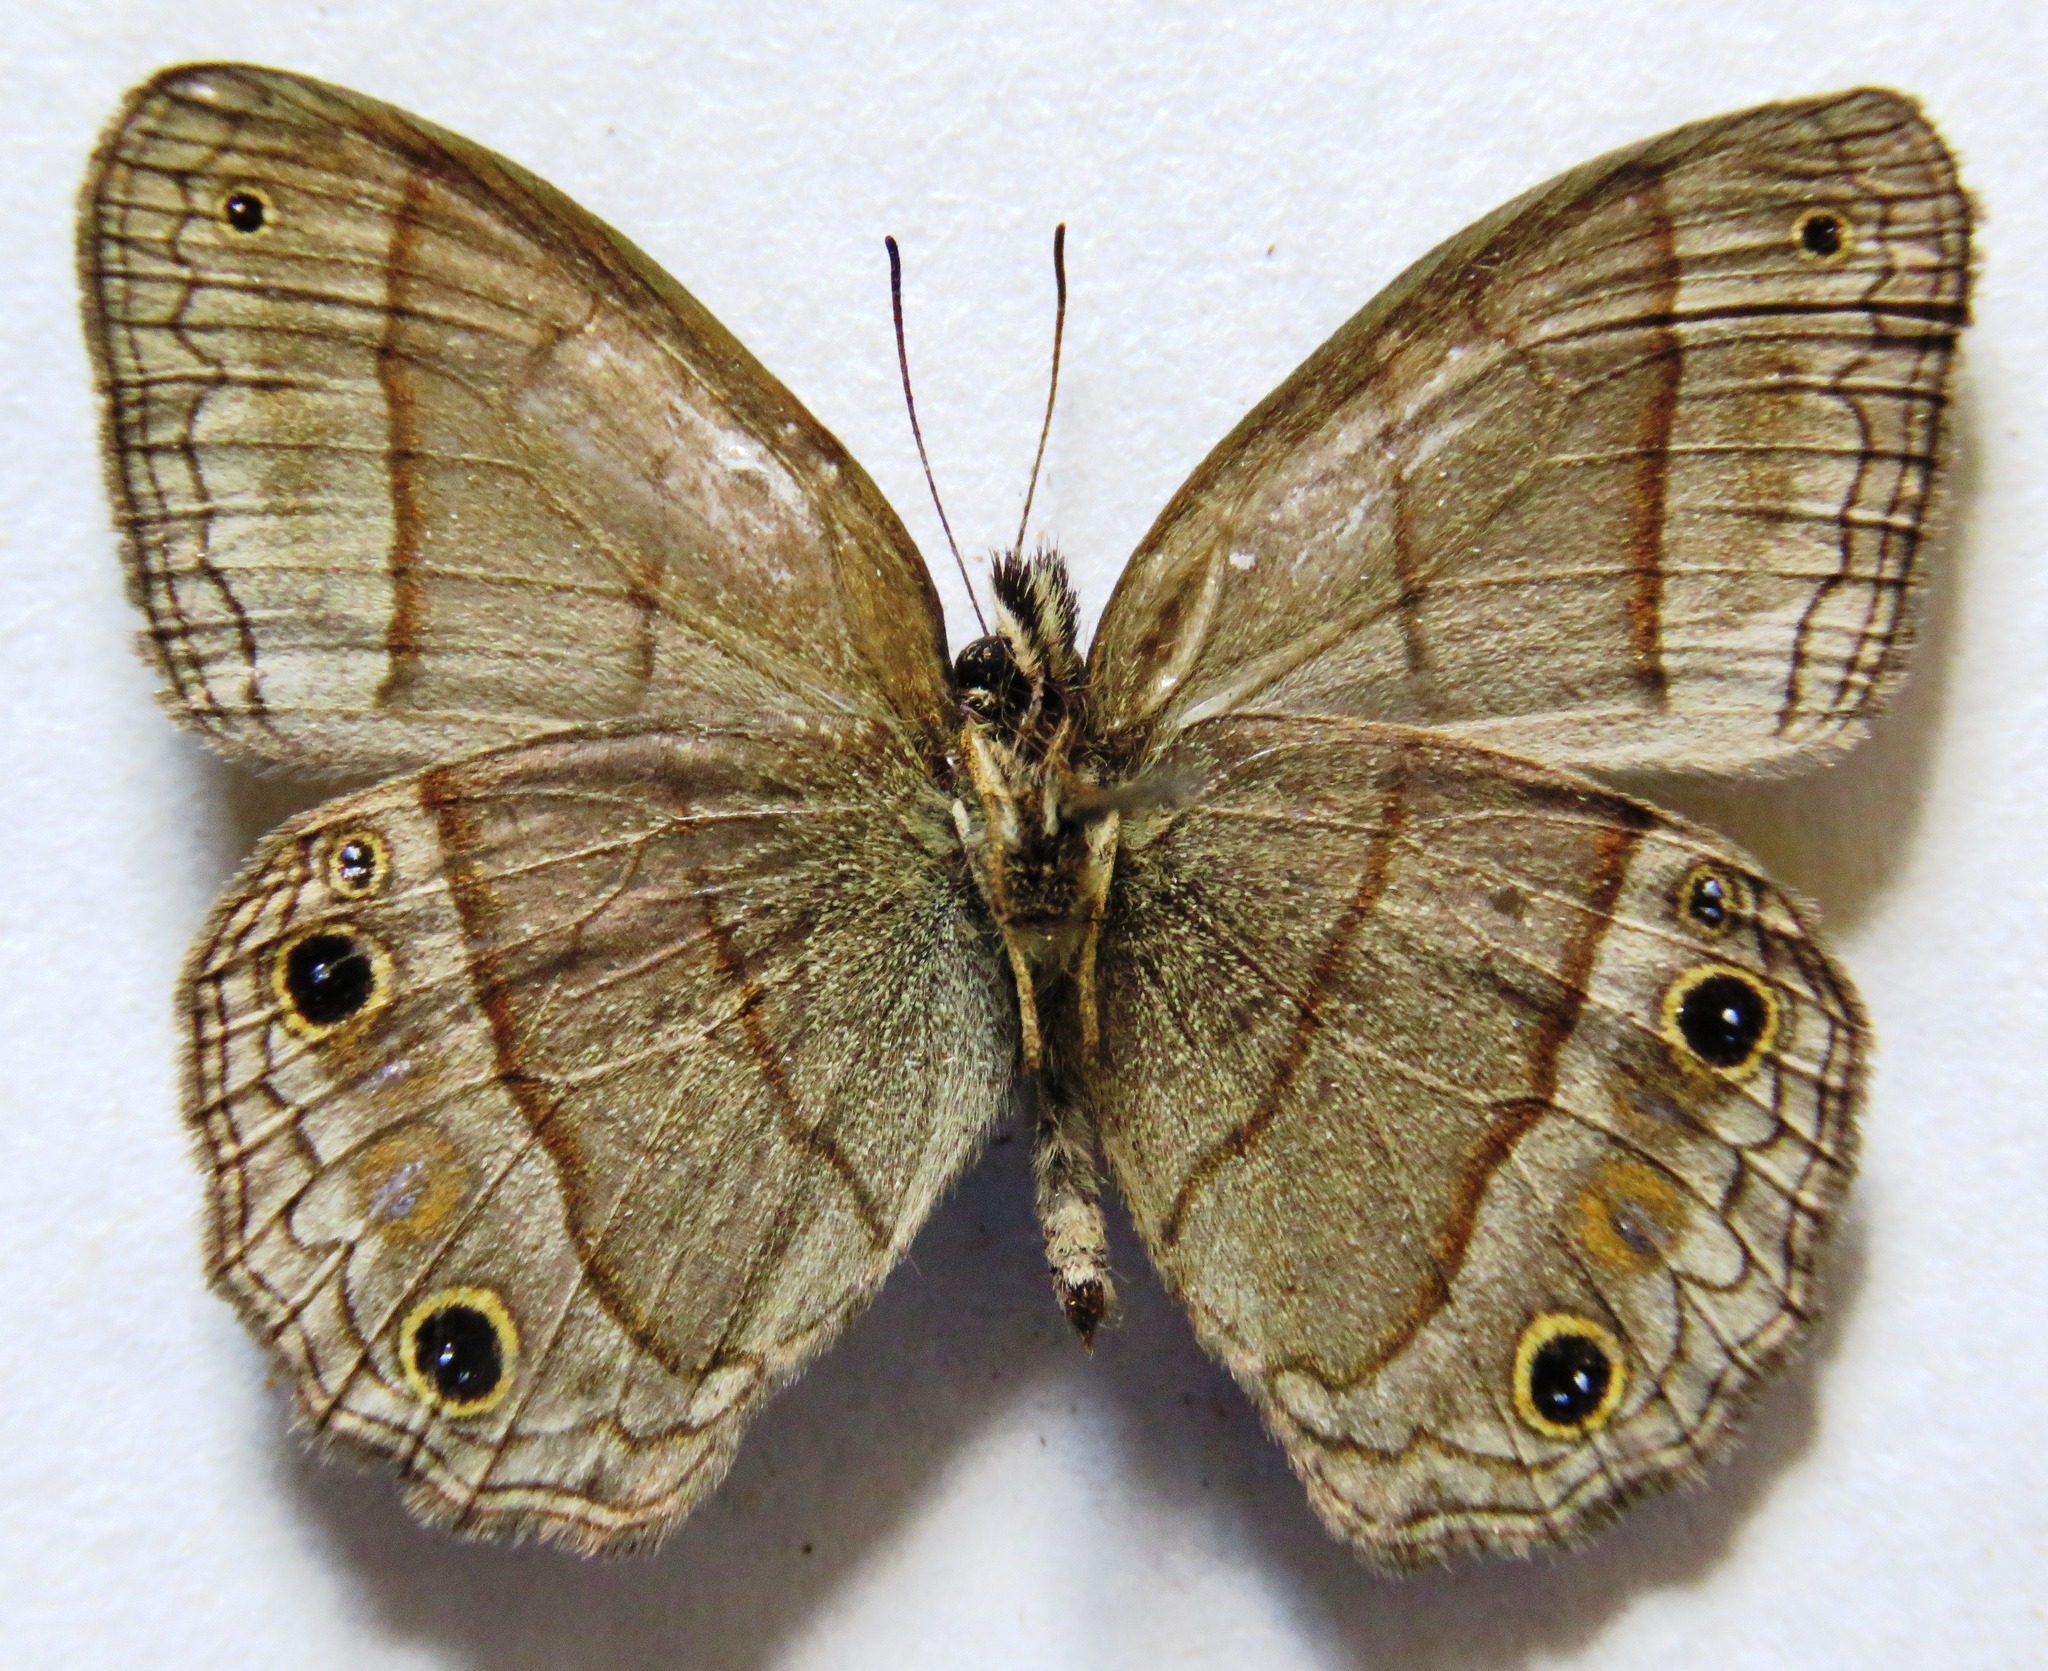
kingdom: Animalia
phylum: Arthropoda
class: Insecta
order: Lepidoptera
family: Nymphalidae
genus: Euptychia
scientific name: Euptychia Cissia pompilia
